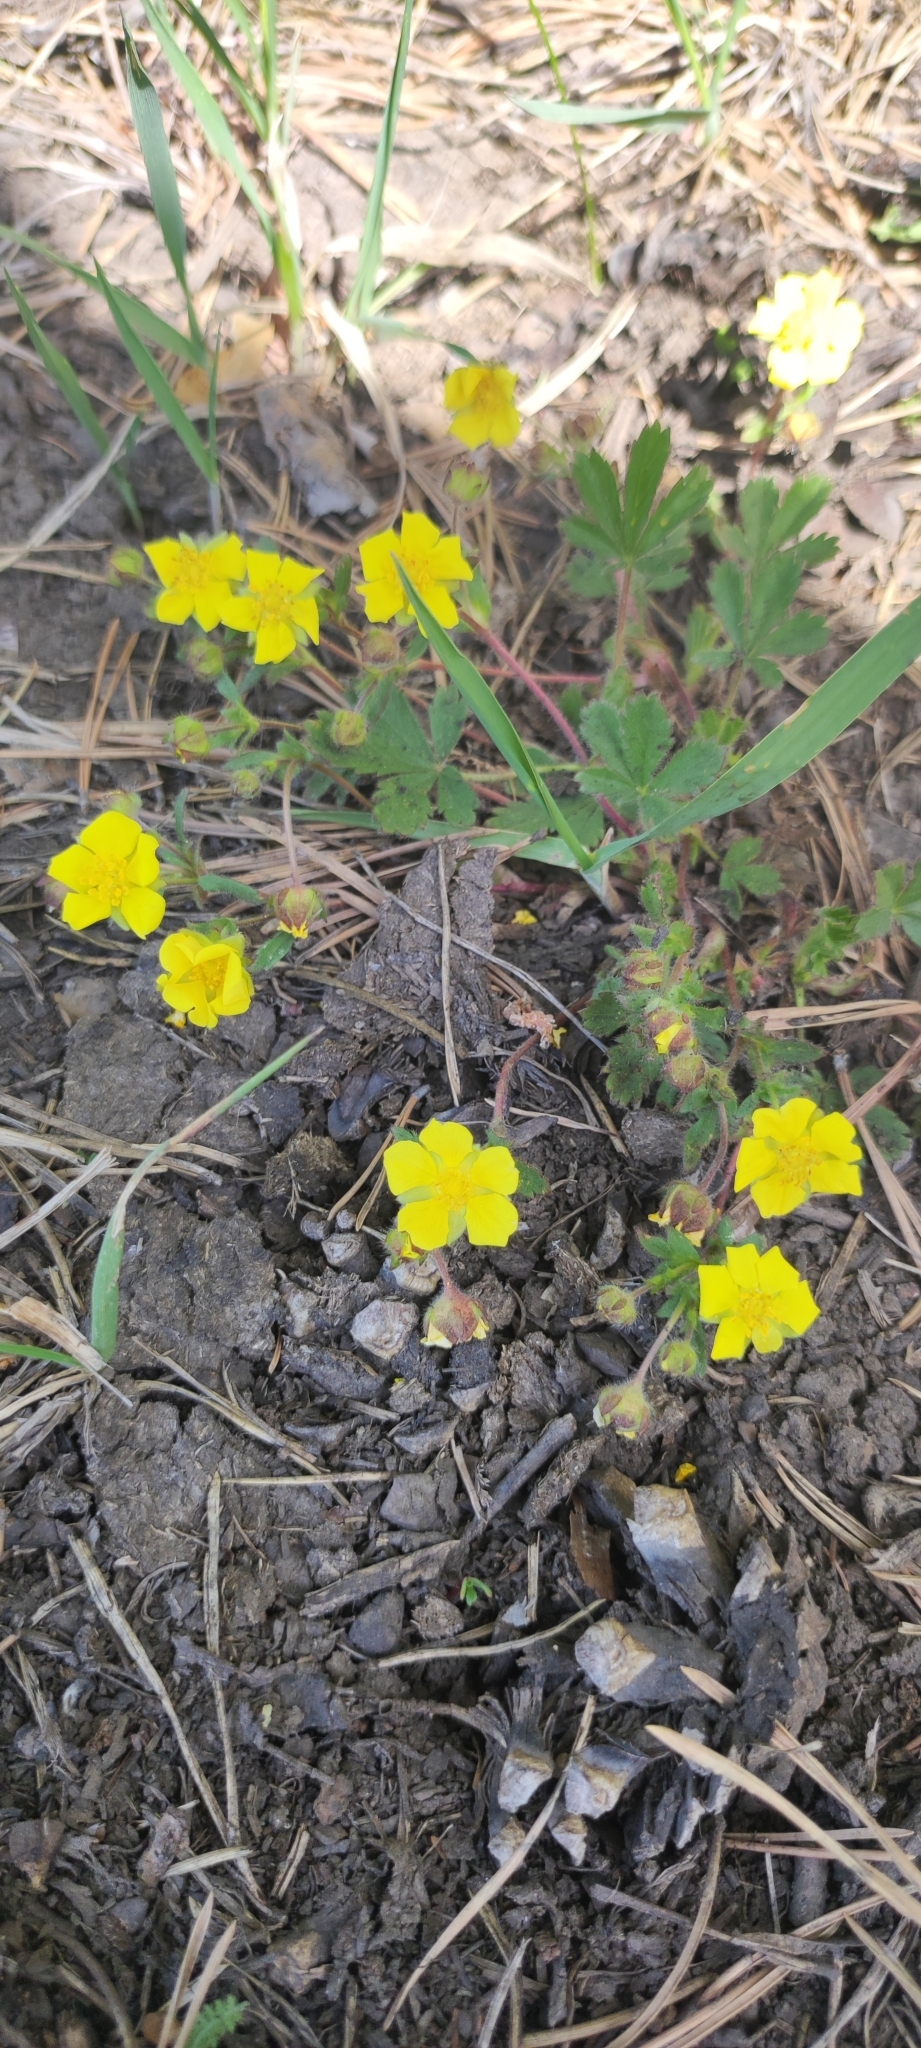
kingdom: Plantae
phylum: Tracheophyta
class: Magnoliopsida
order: Rosales
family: Rosaceae
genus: Potentilla
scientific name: Potentilla humifusa
